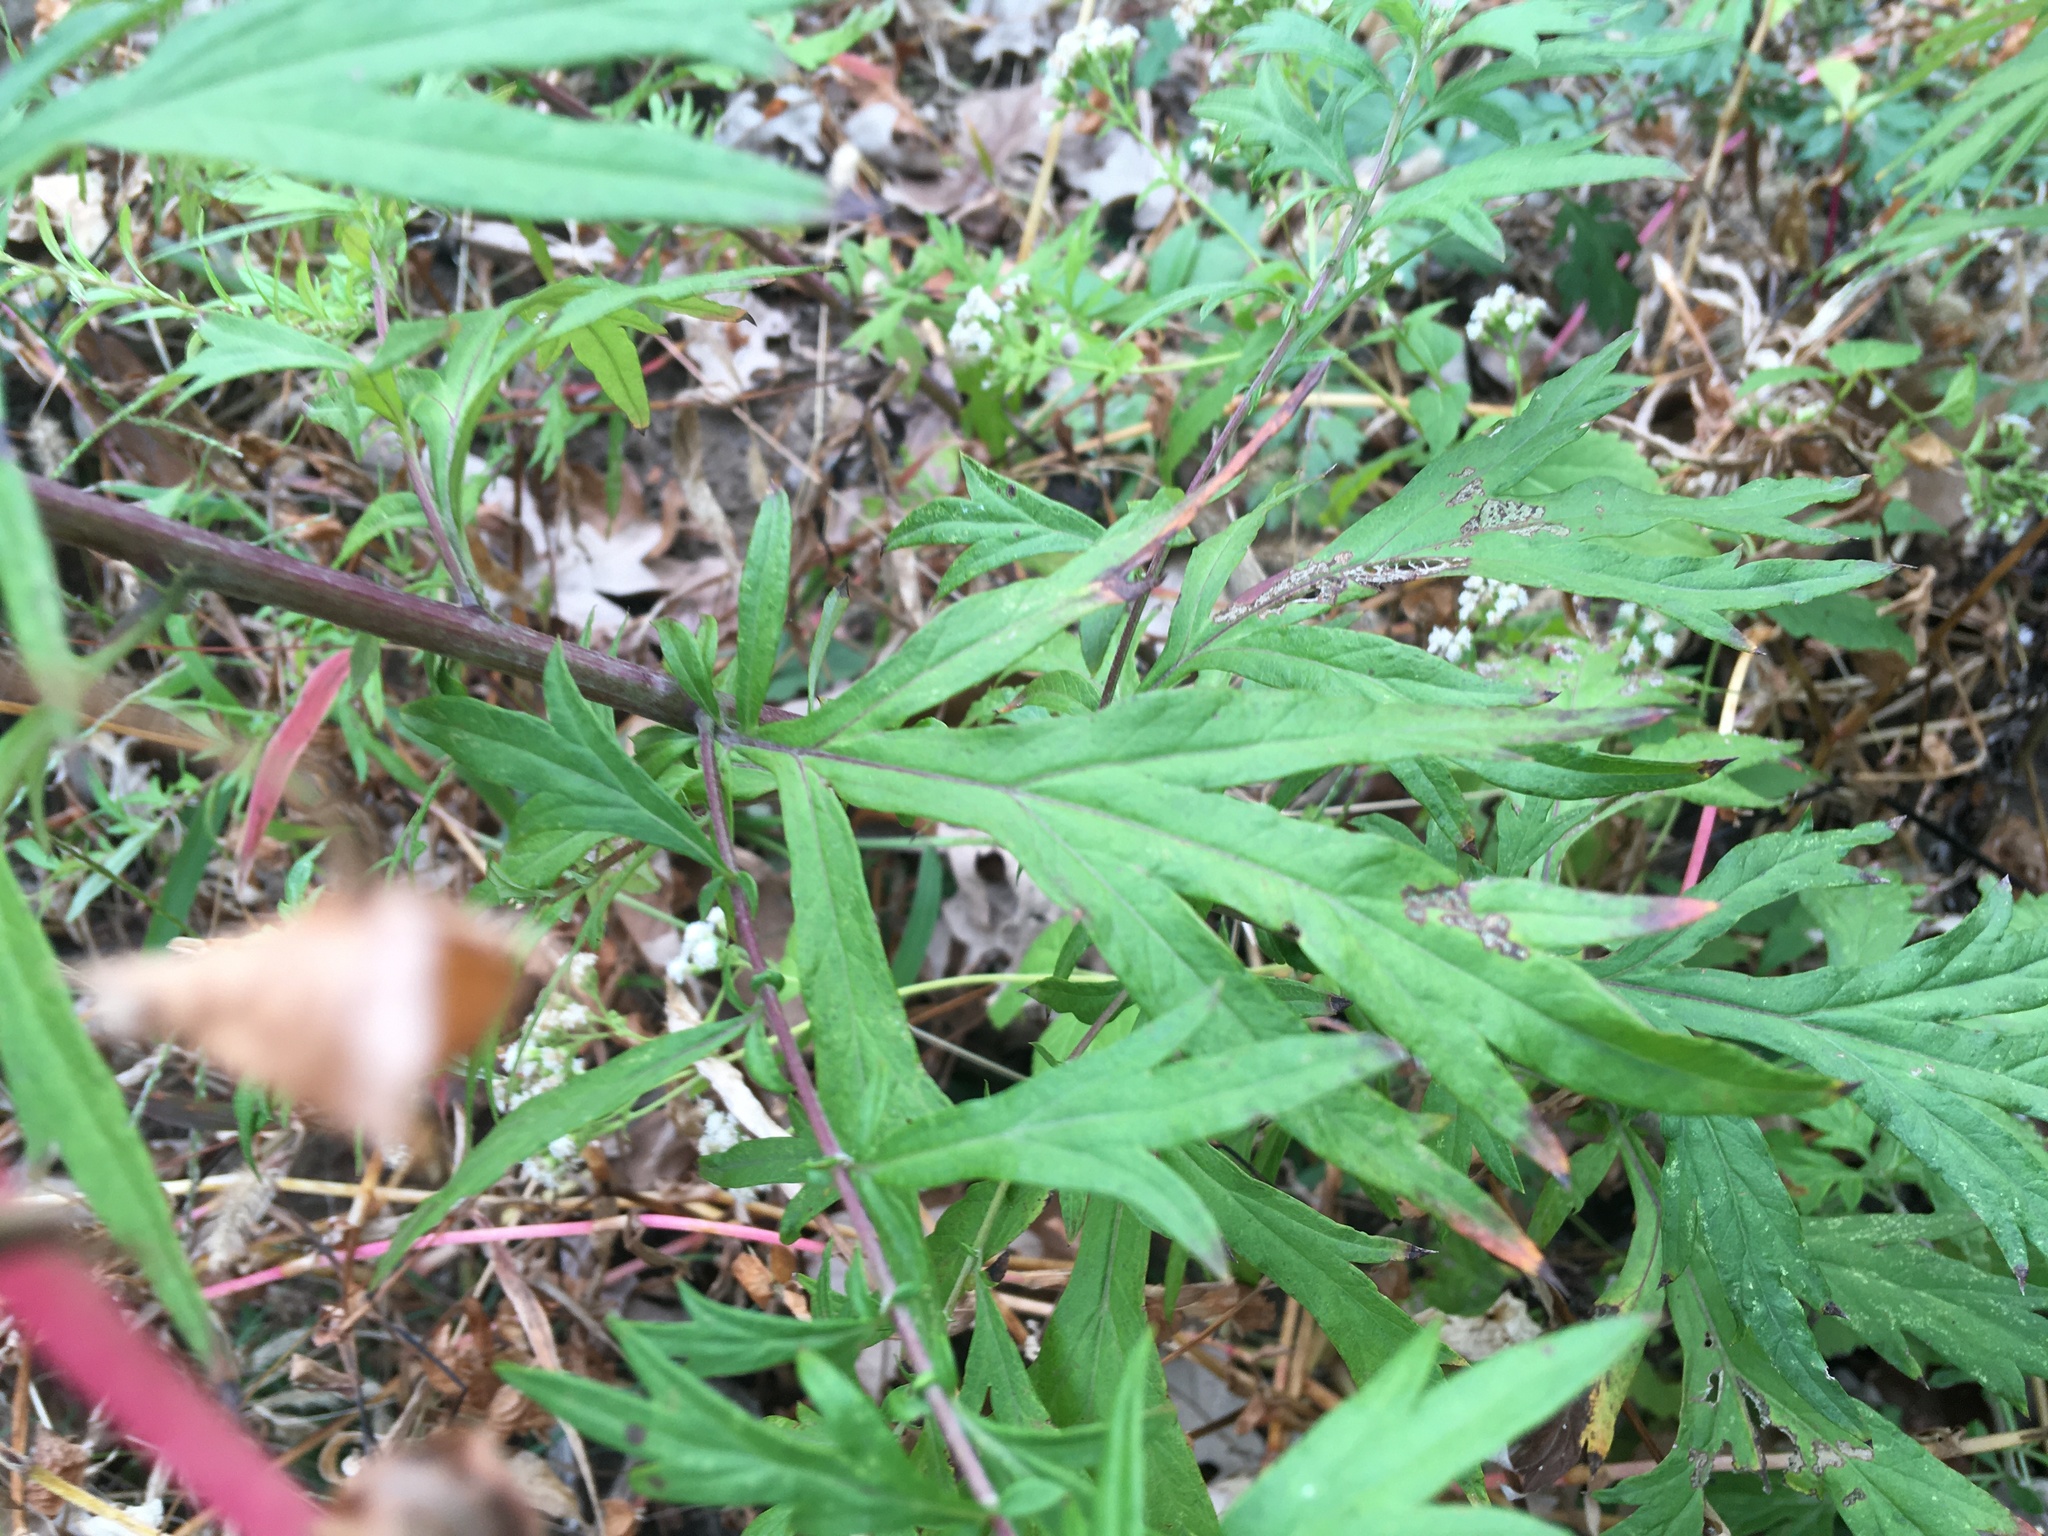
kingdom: Plantae
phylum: Tracheophyta
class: Magnoliopsida
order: Asterales
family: Asteraceae
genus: Artemisia
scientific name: Artemisia vulgaris
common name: Mugwort
